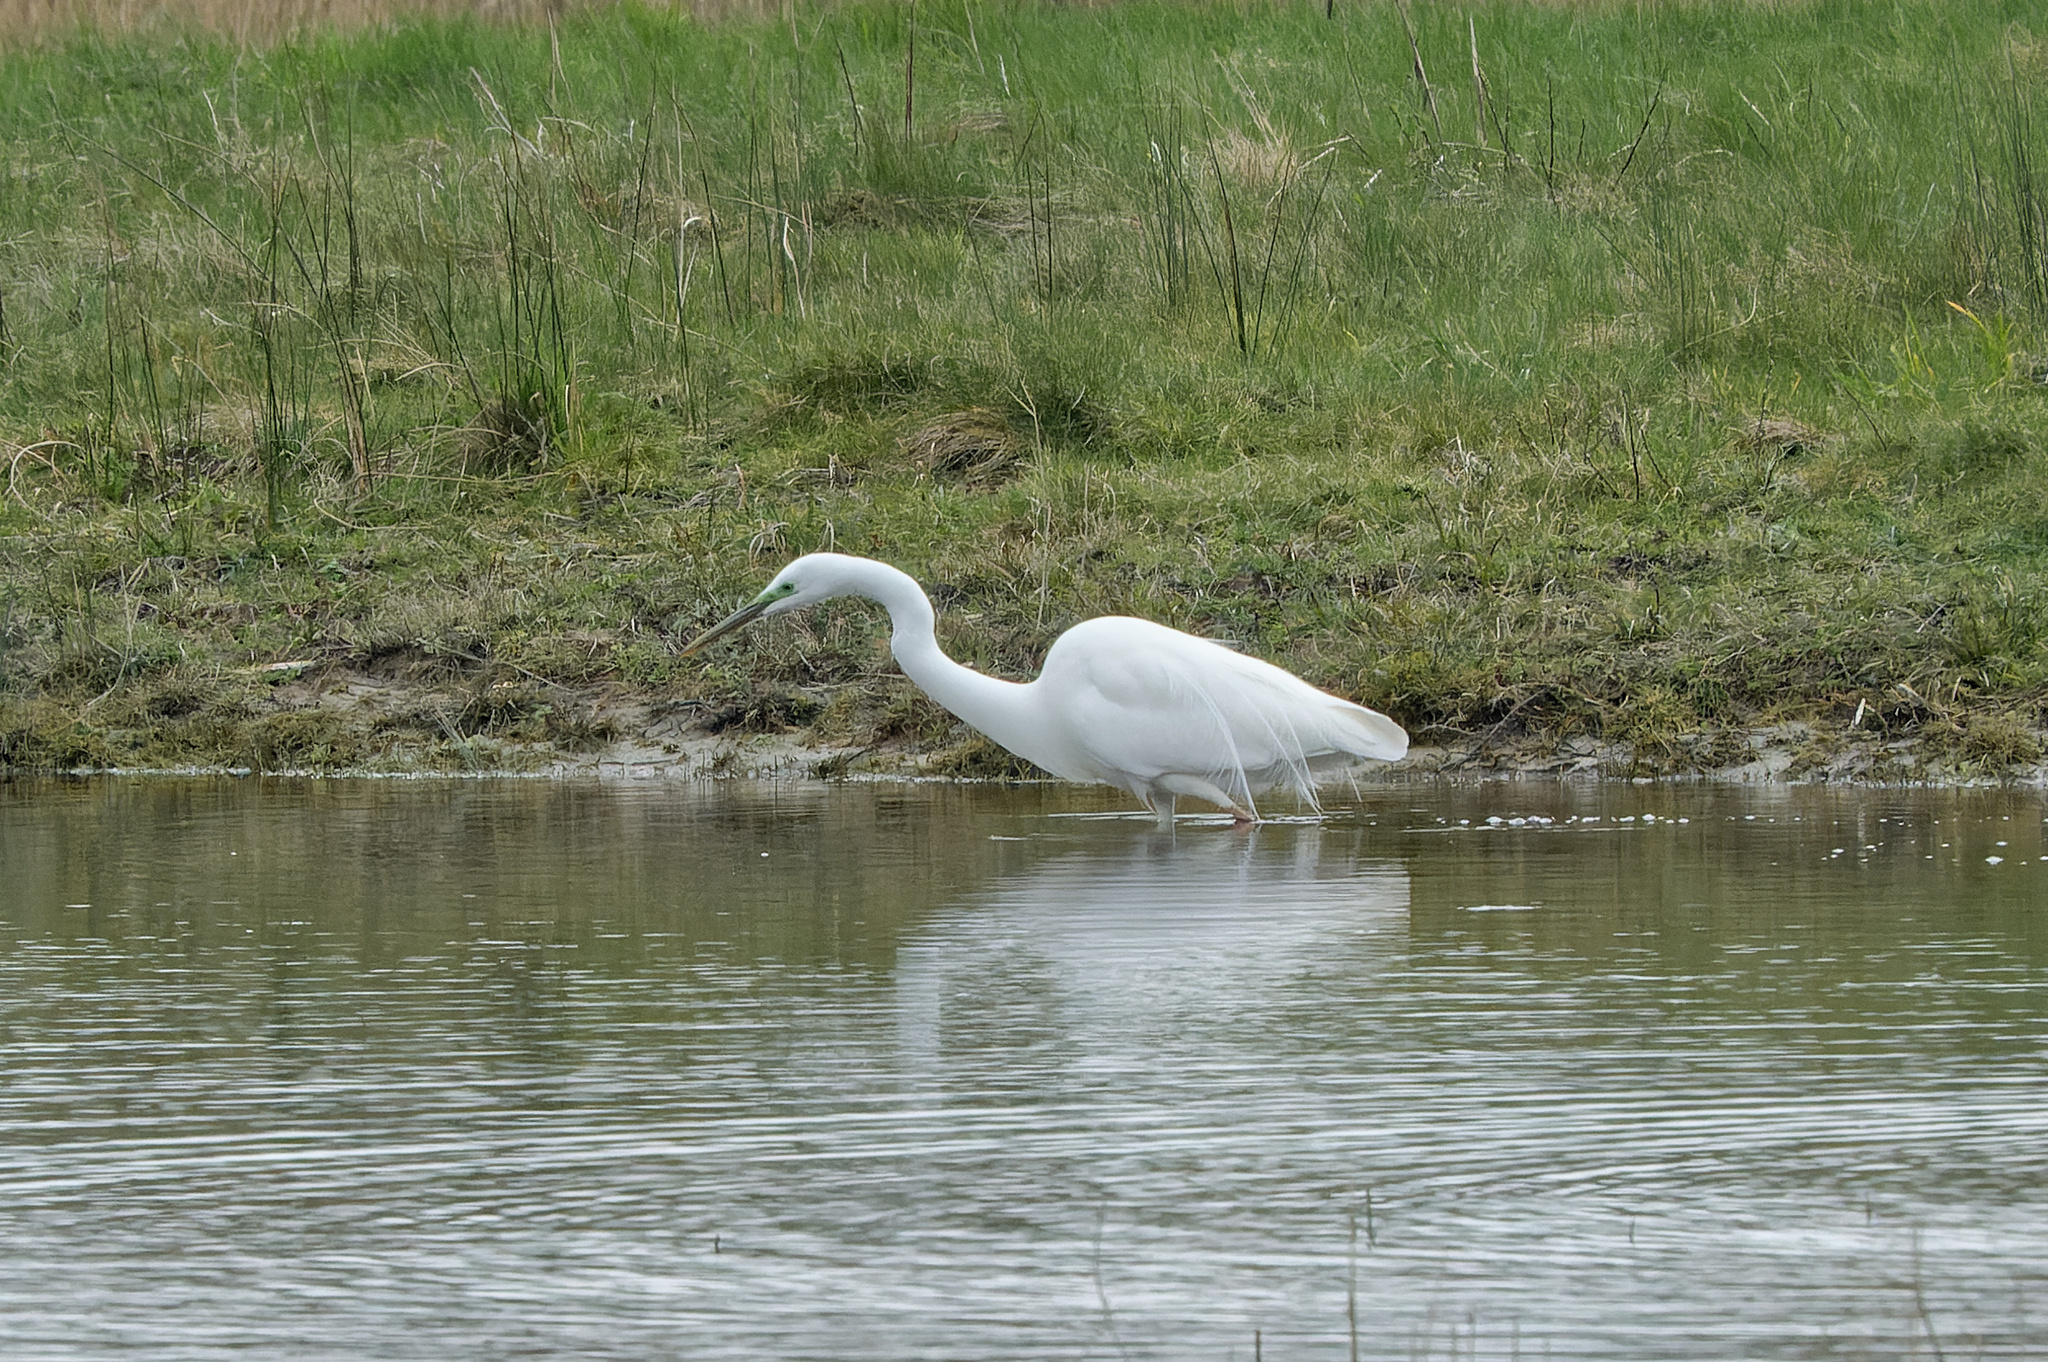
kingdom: Animalia
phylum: Chordata
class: Aves
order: Pelecaniformes
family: Ardeidae
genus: Ardea
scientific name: Ardea alba
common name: Great egret
